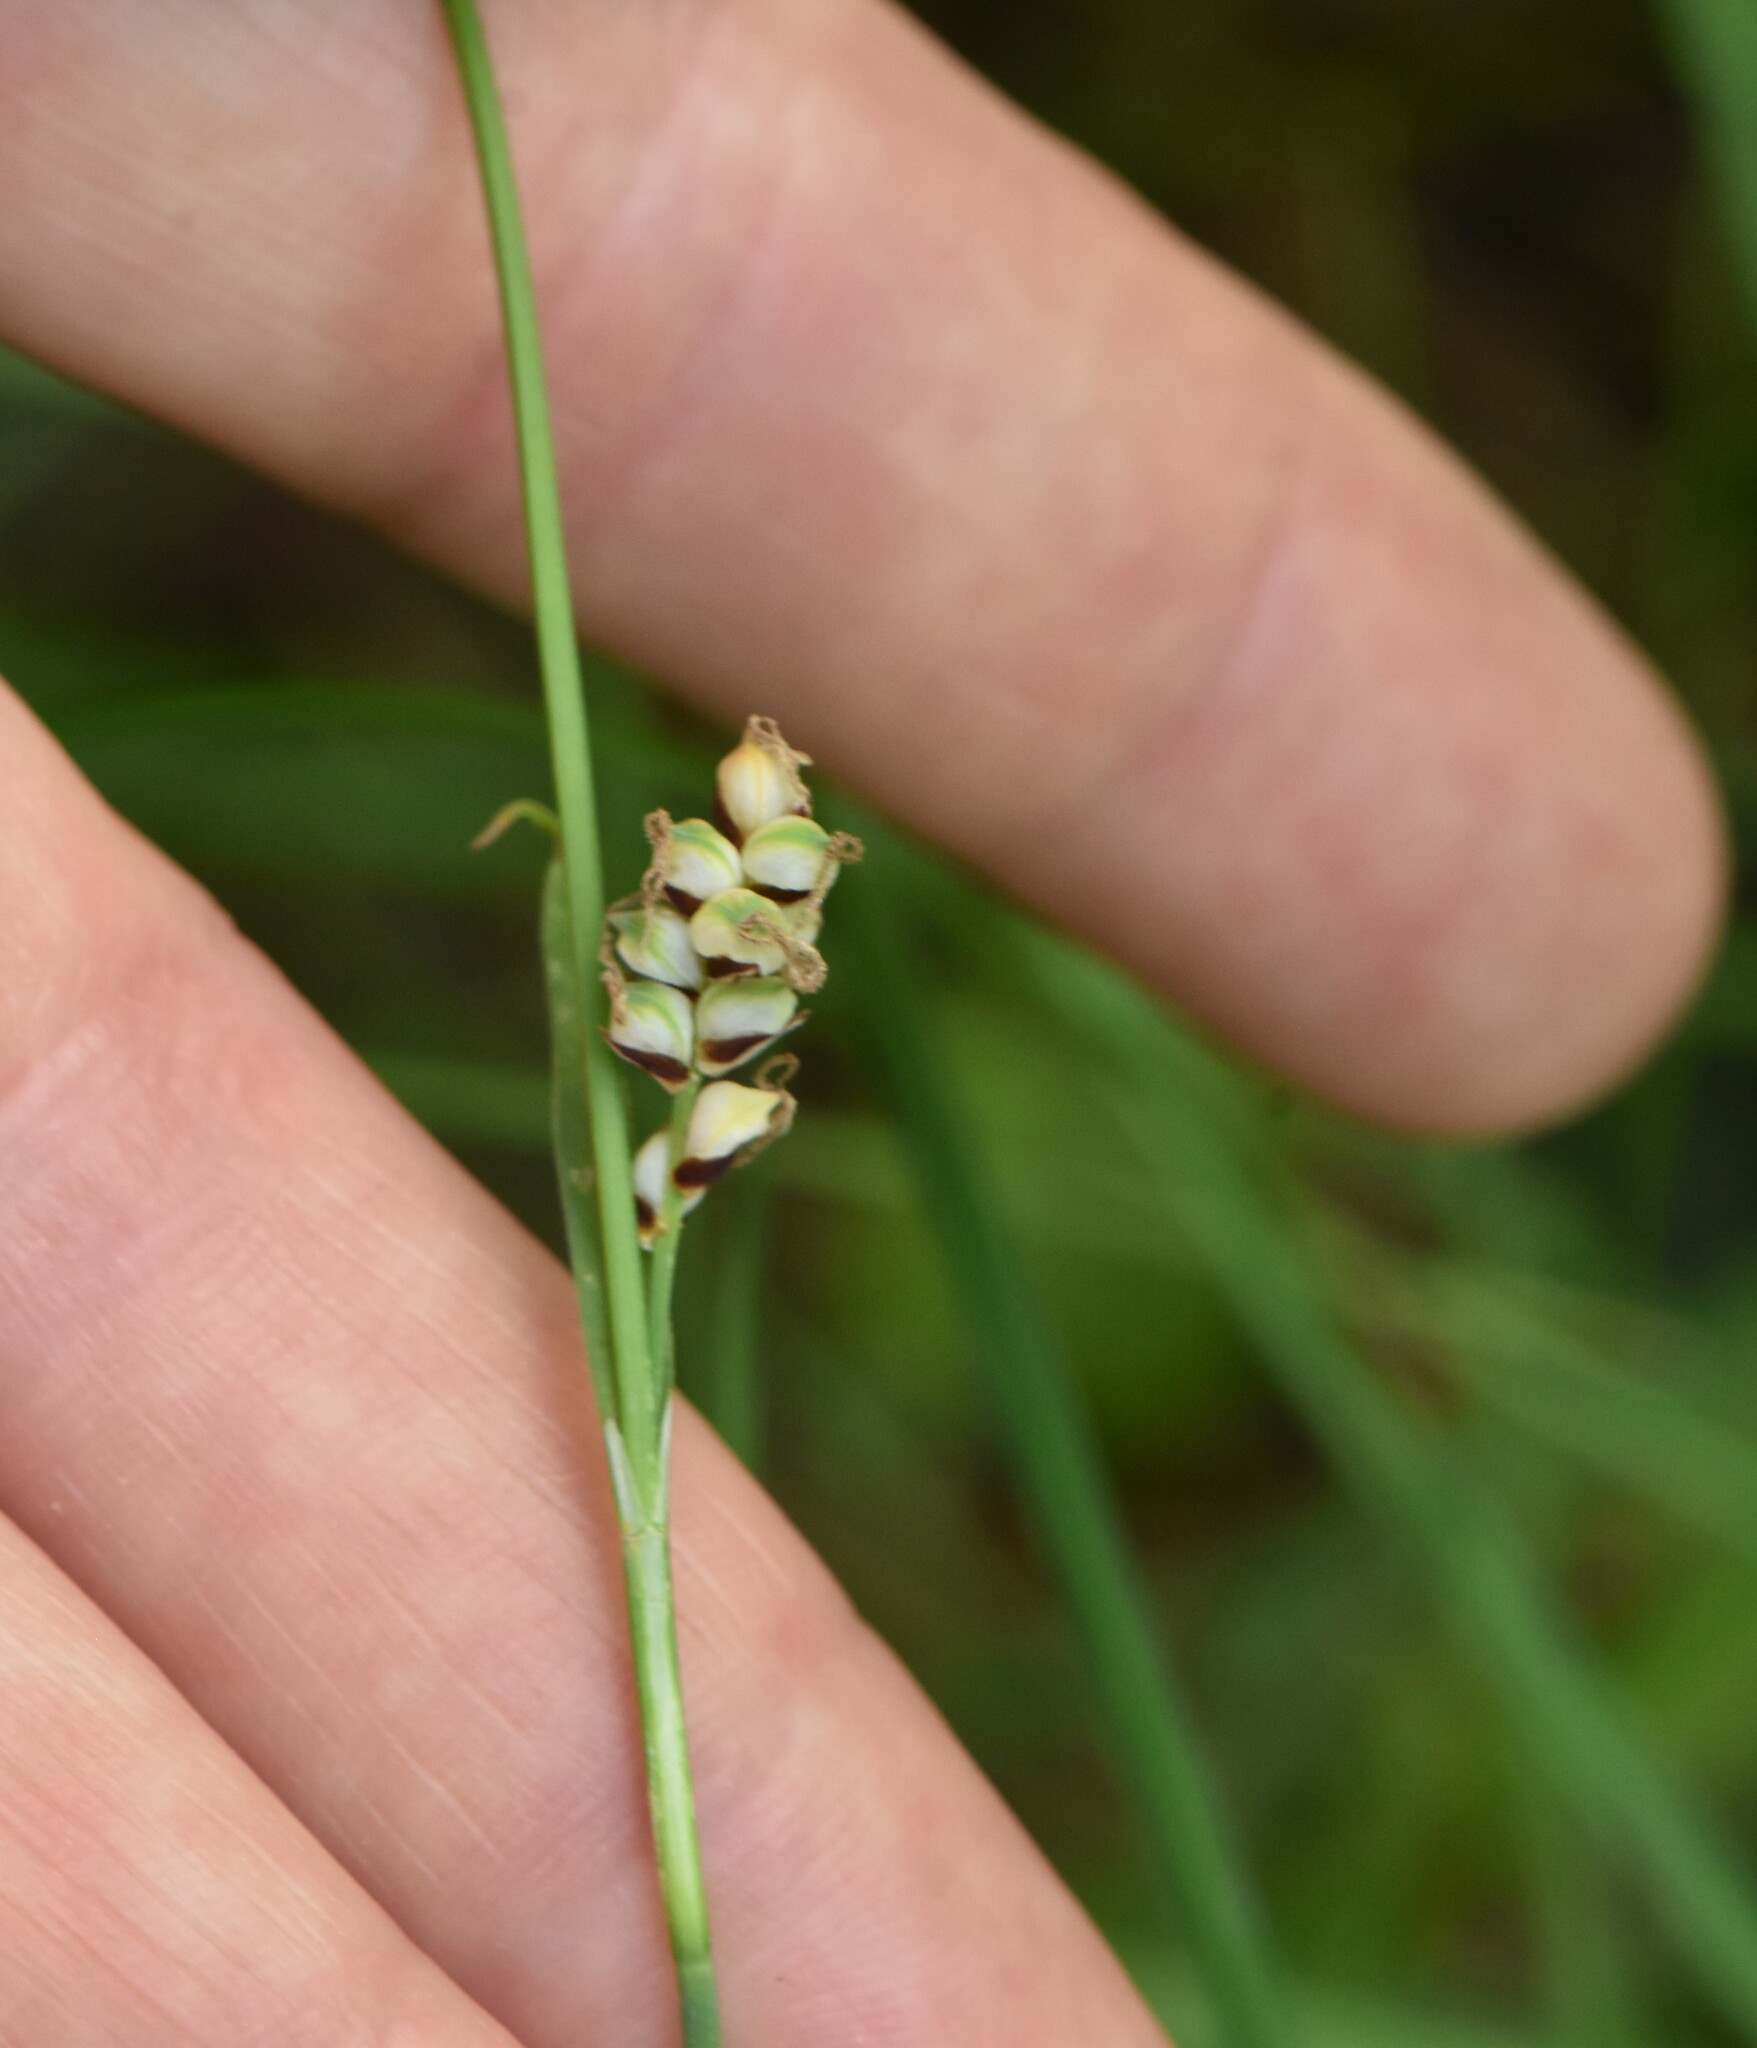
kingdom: Plantae
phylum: Tracheophyta
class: Liliopsida
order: Poales
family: Cyperaceae
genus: Carex
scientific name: Carex panicea
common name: Carnation sedge
